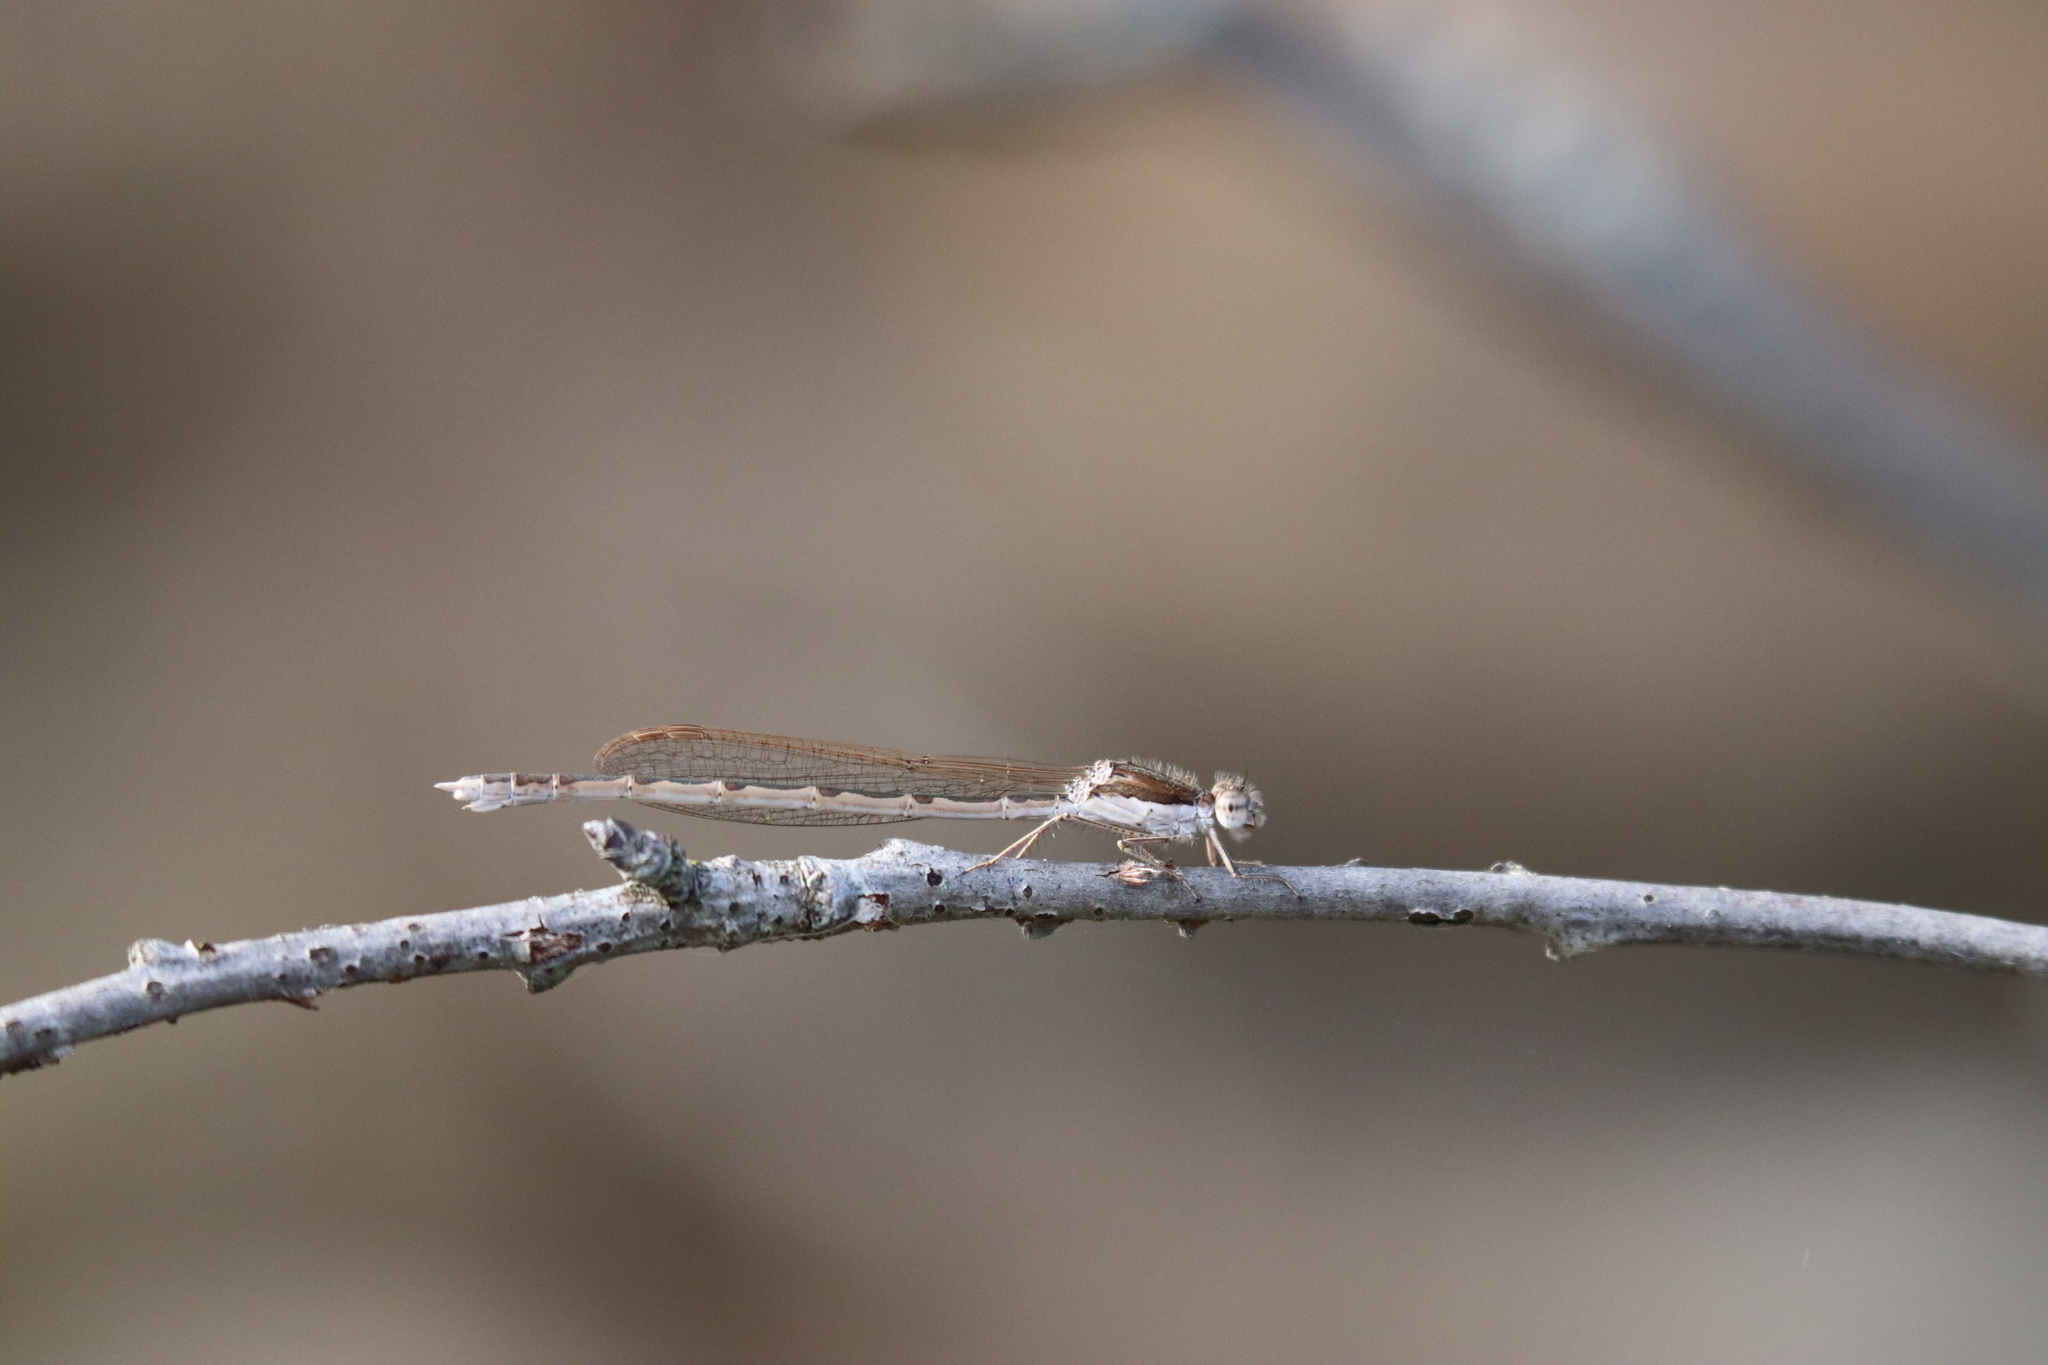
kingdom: Animalia
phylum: Arthropoda
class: Insecta
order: Odonata
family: Lestidae
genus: Sympecma
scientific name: Sympecma fusca
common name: Common winter damsel
